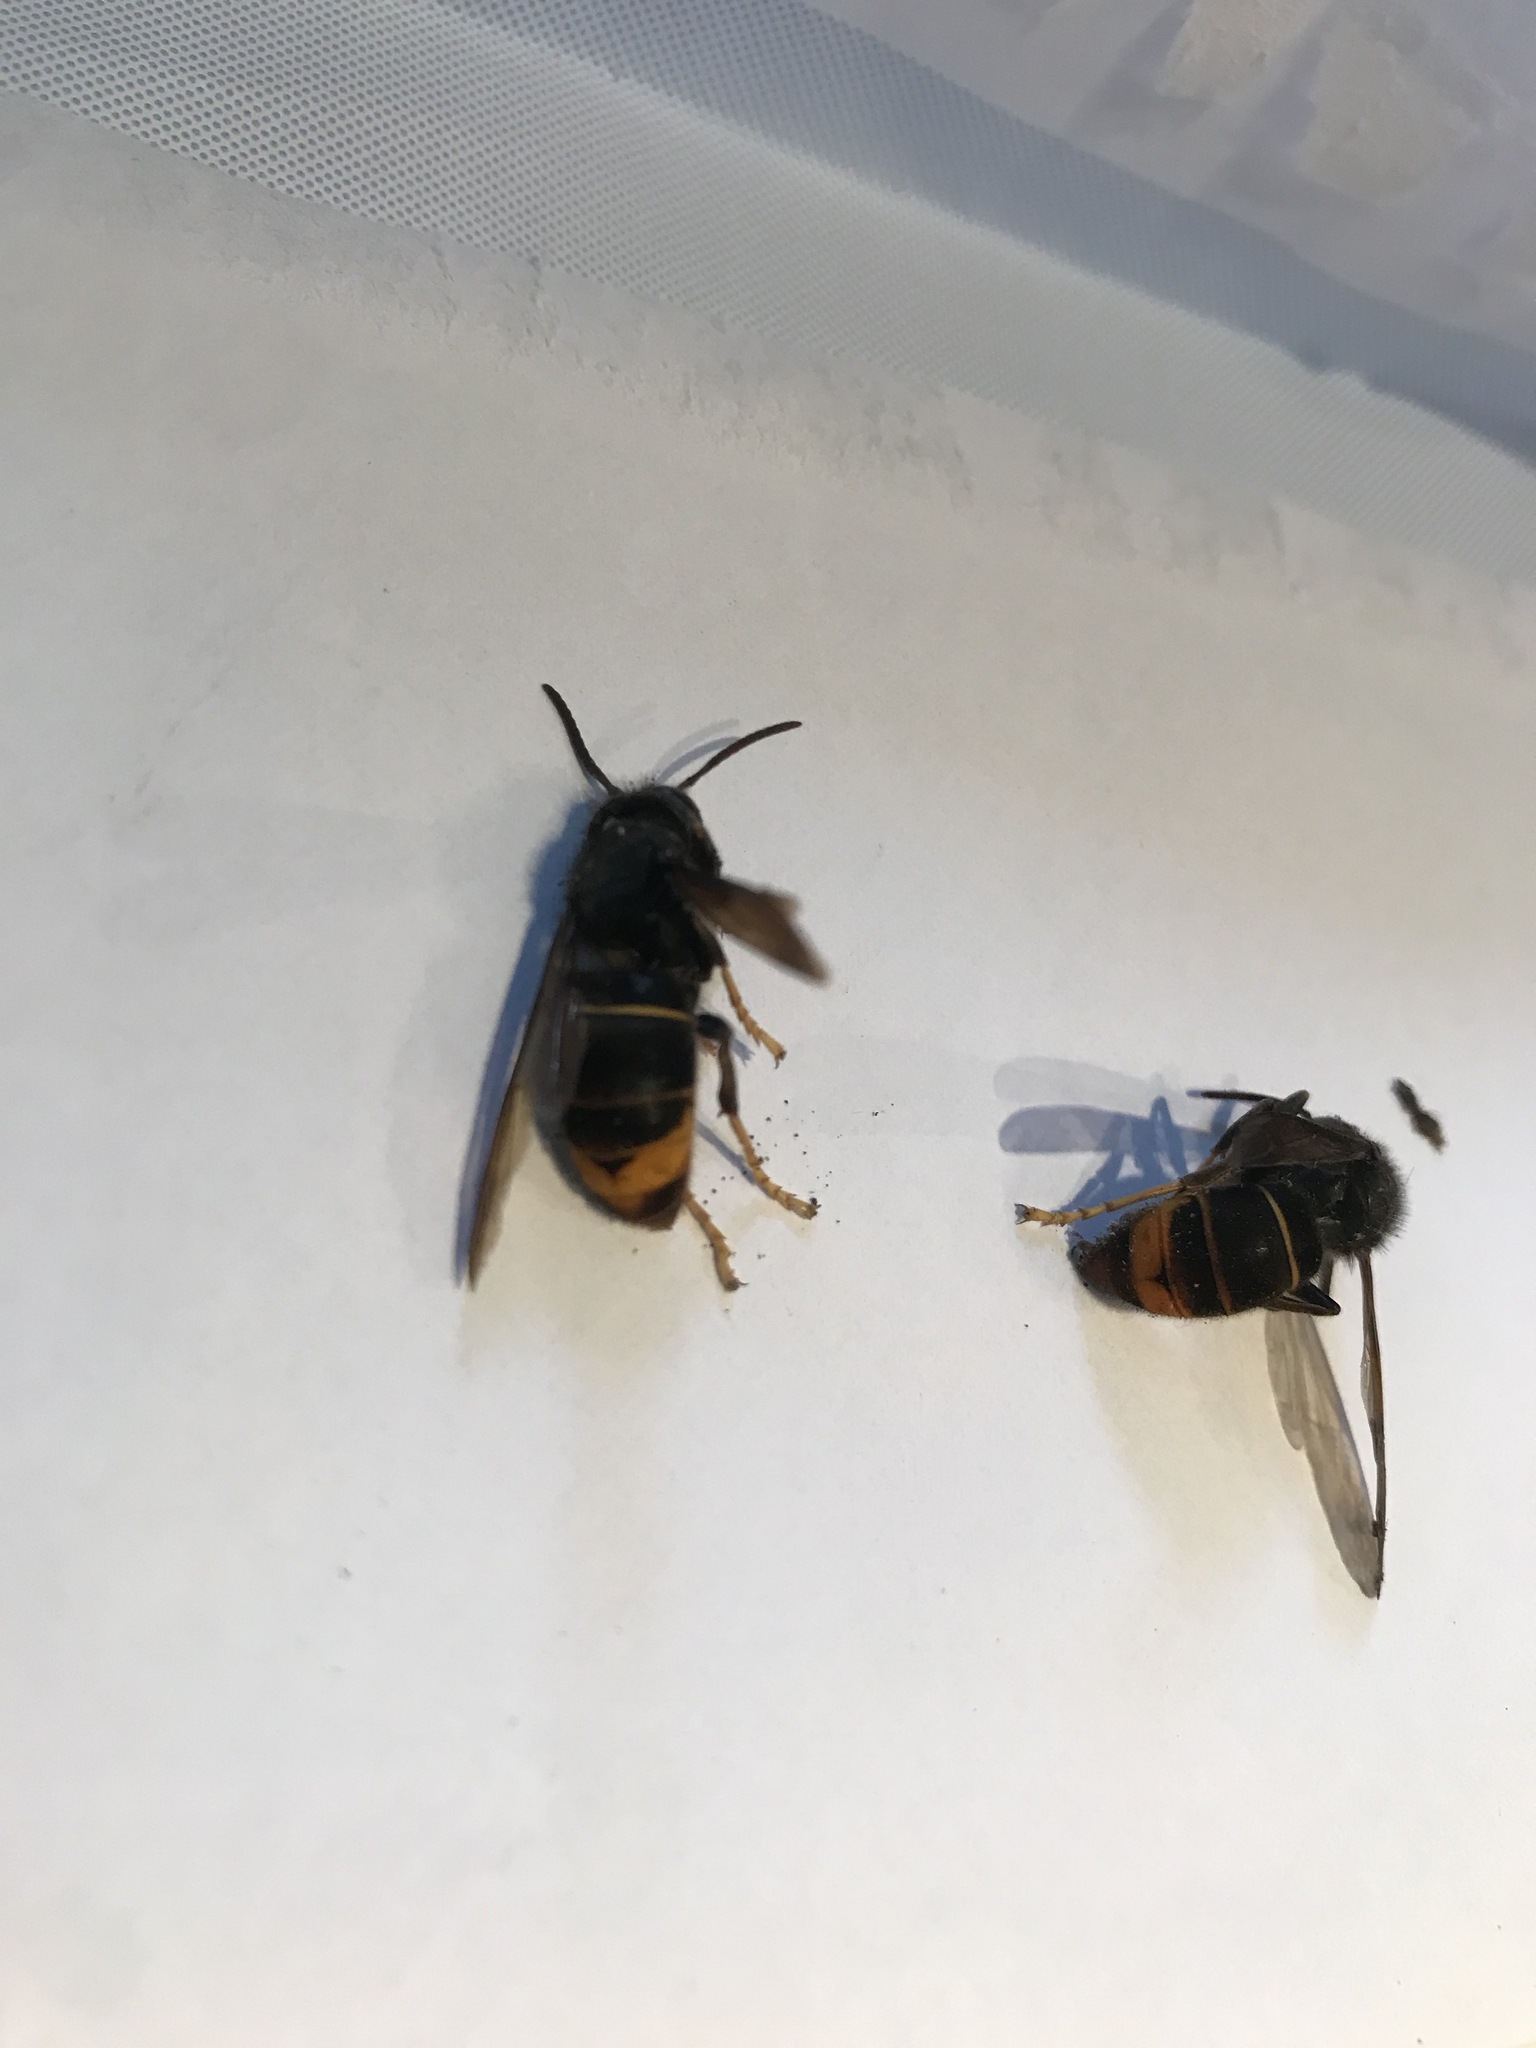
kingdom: Animalia
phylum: Arthropoda
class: Insecta
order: Hymenoptera
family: Vespidae
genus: Vespa
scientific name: Vespa velutina
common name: Asian hornet
